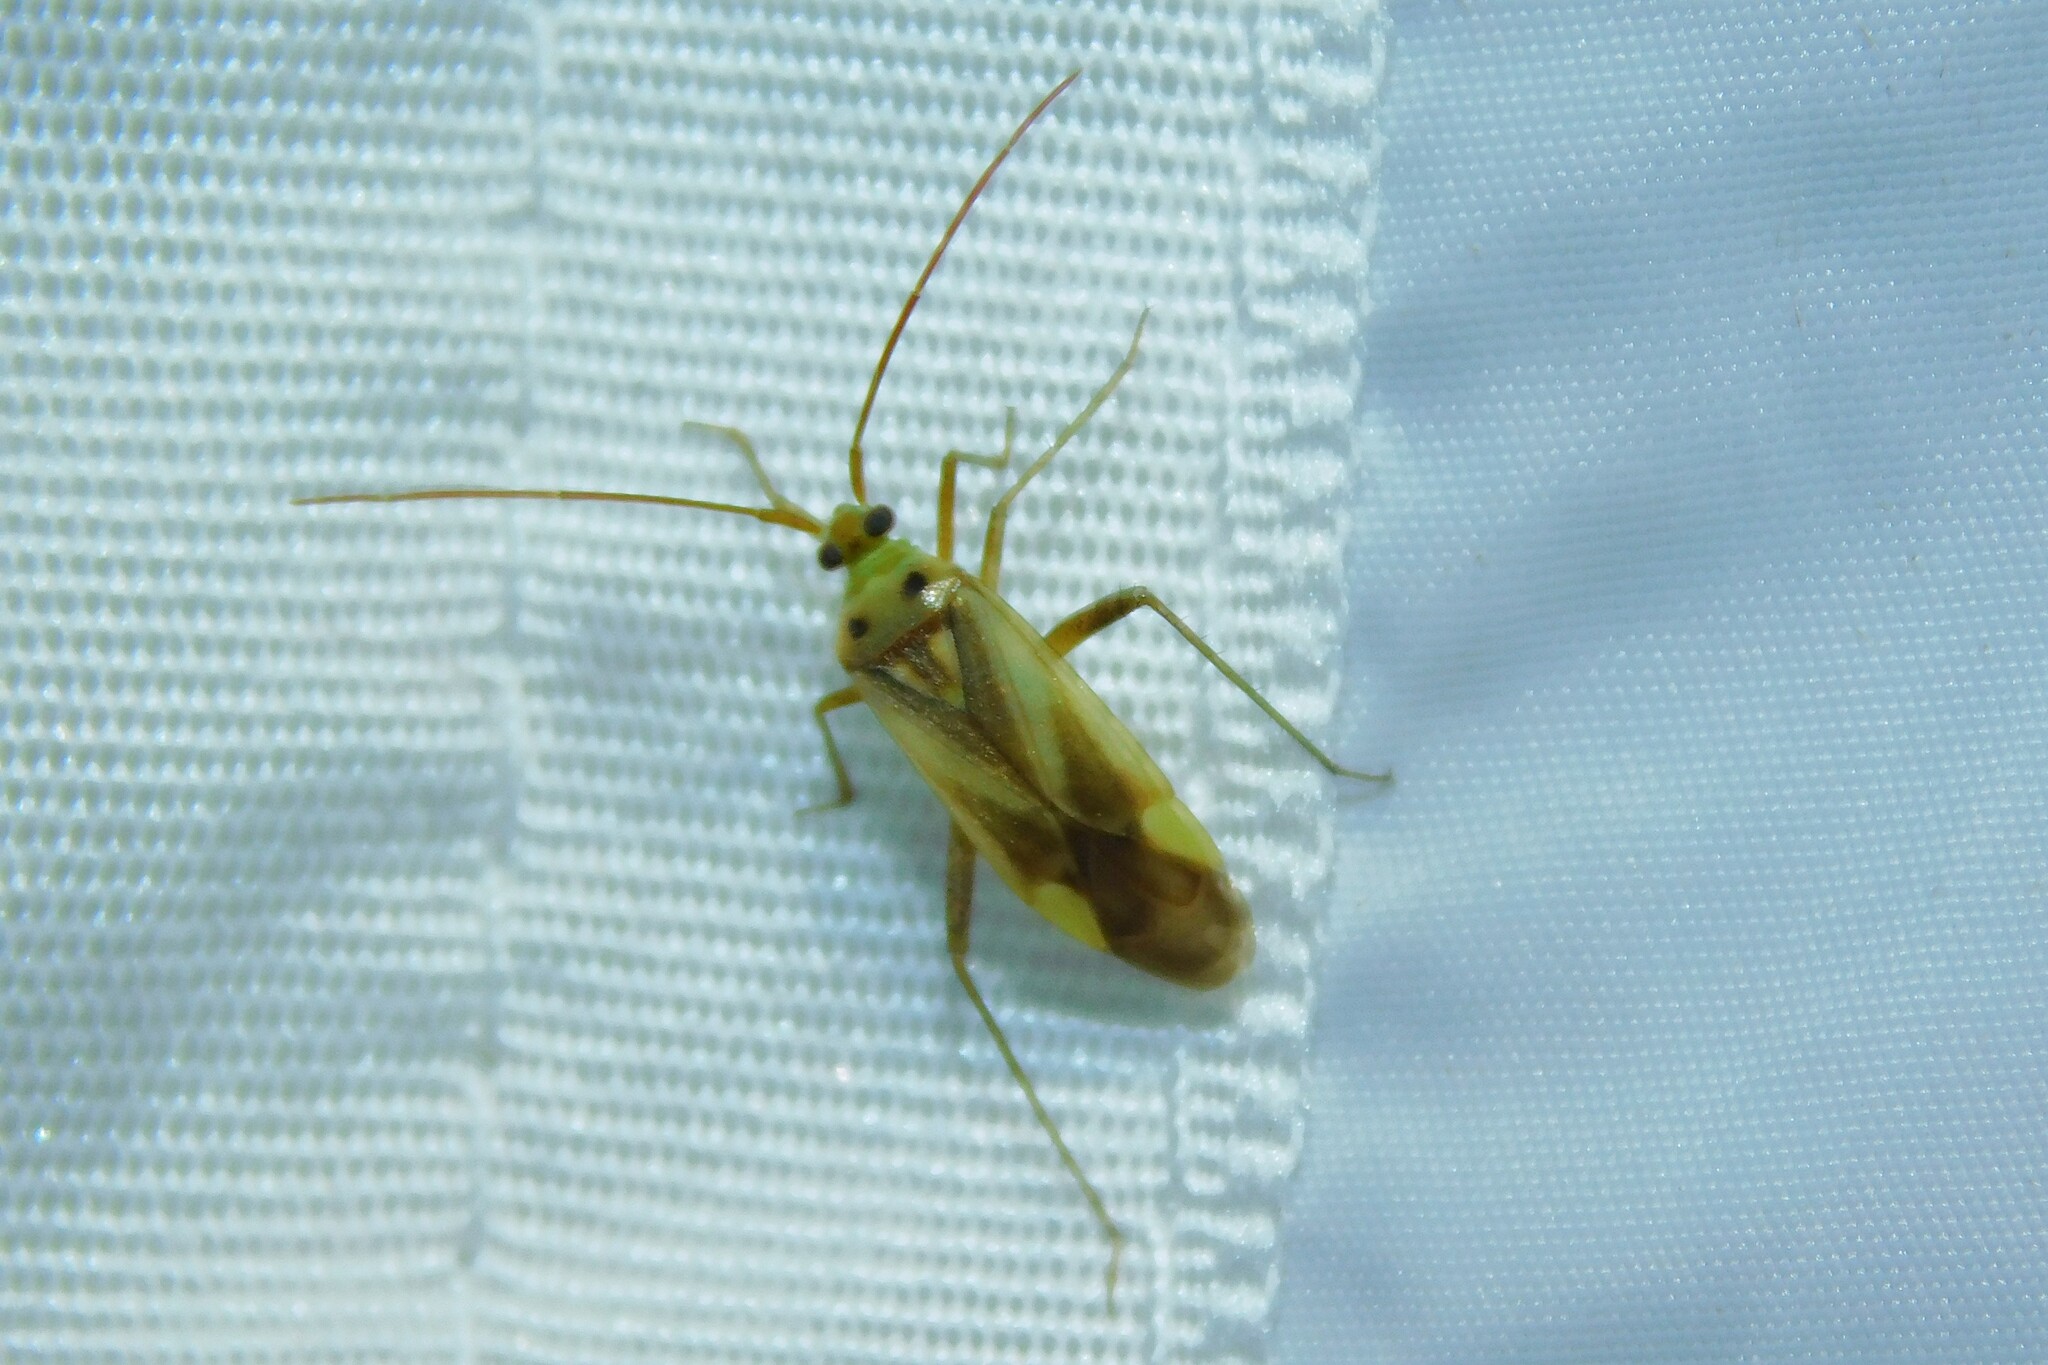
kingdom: Animalia
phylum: Arthropoda
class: Insecta
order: Hemiptera
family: Miridae
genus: Adelphocoris
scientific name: Adelphocoris lineolatus
